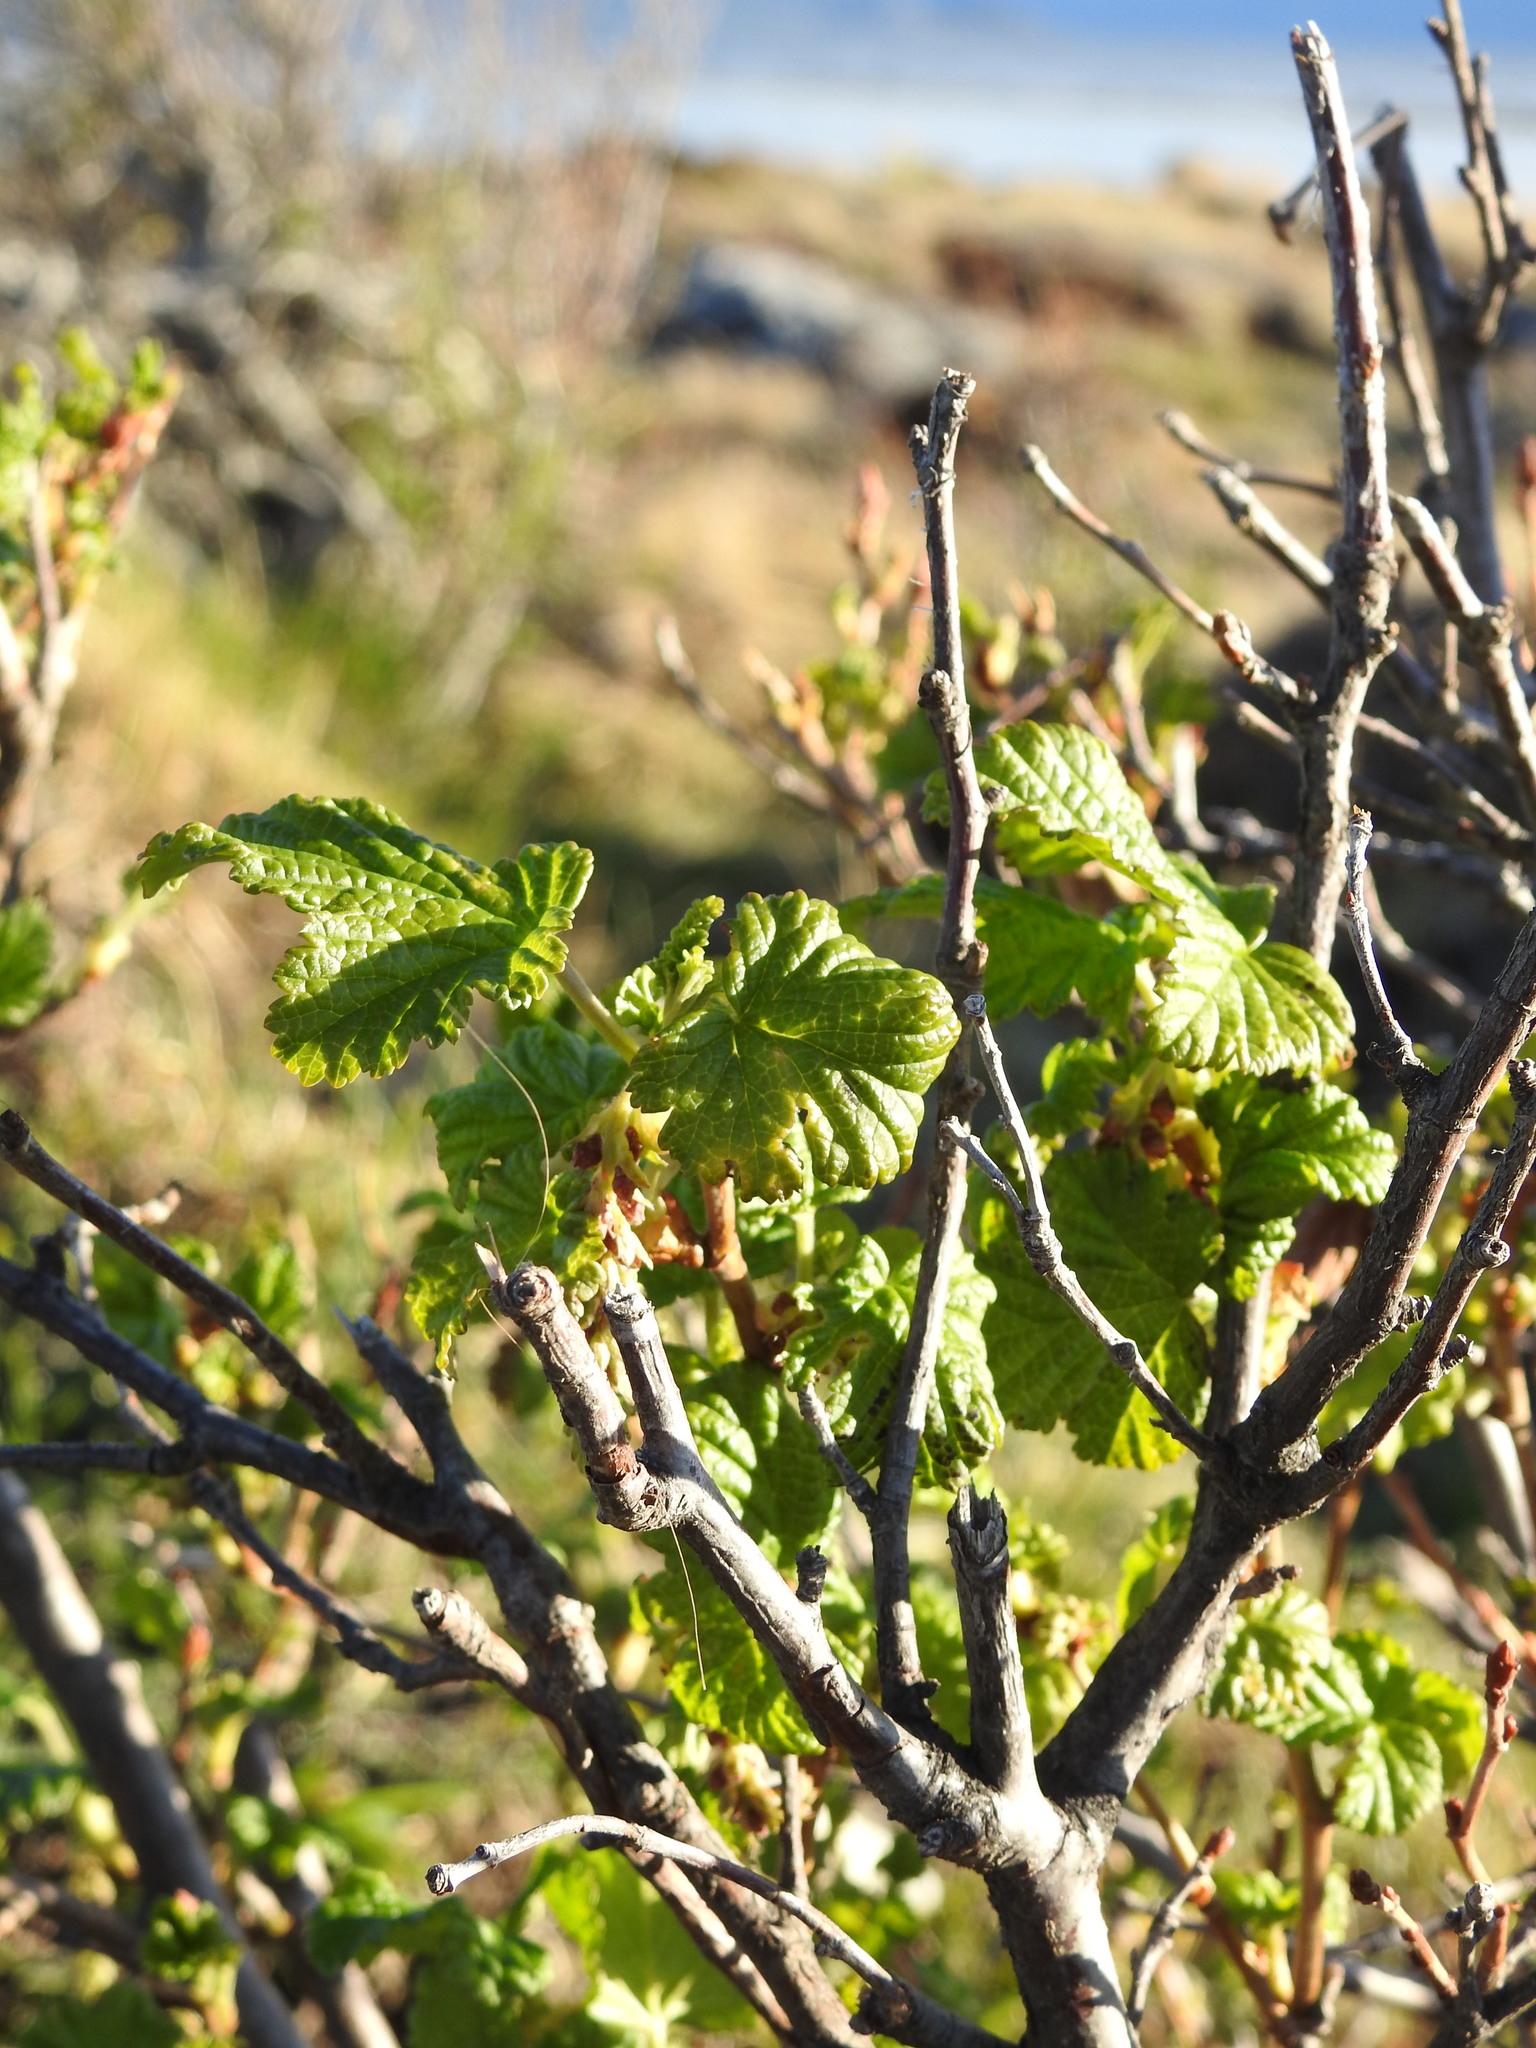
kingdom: Plantae
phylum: Tracheophyta
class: Magnoliopsida
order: Saxifragales
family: Grossulariaceae
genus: Ribes
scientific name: Ribes magellanicum
